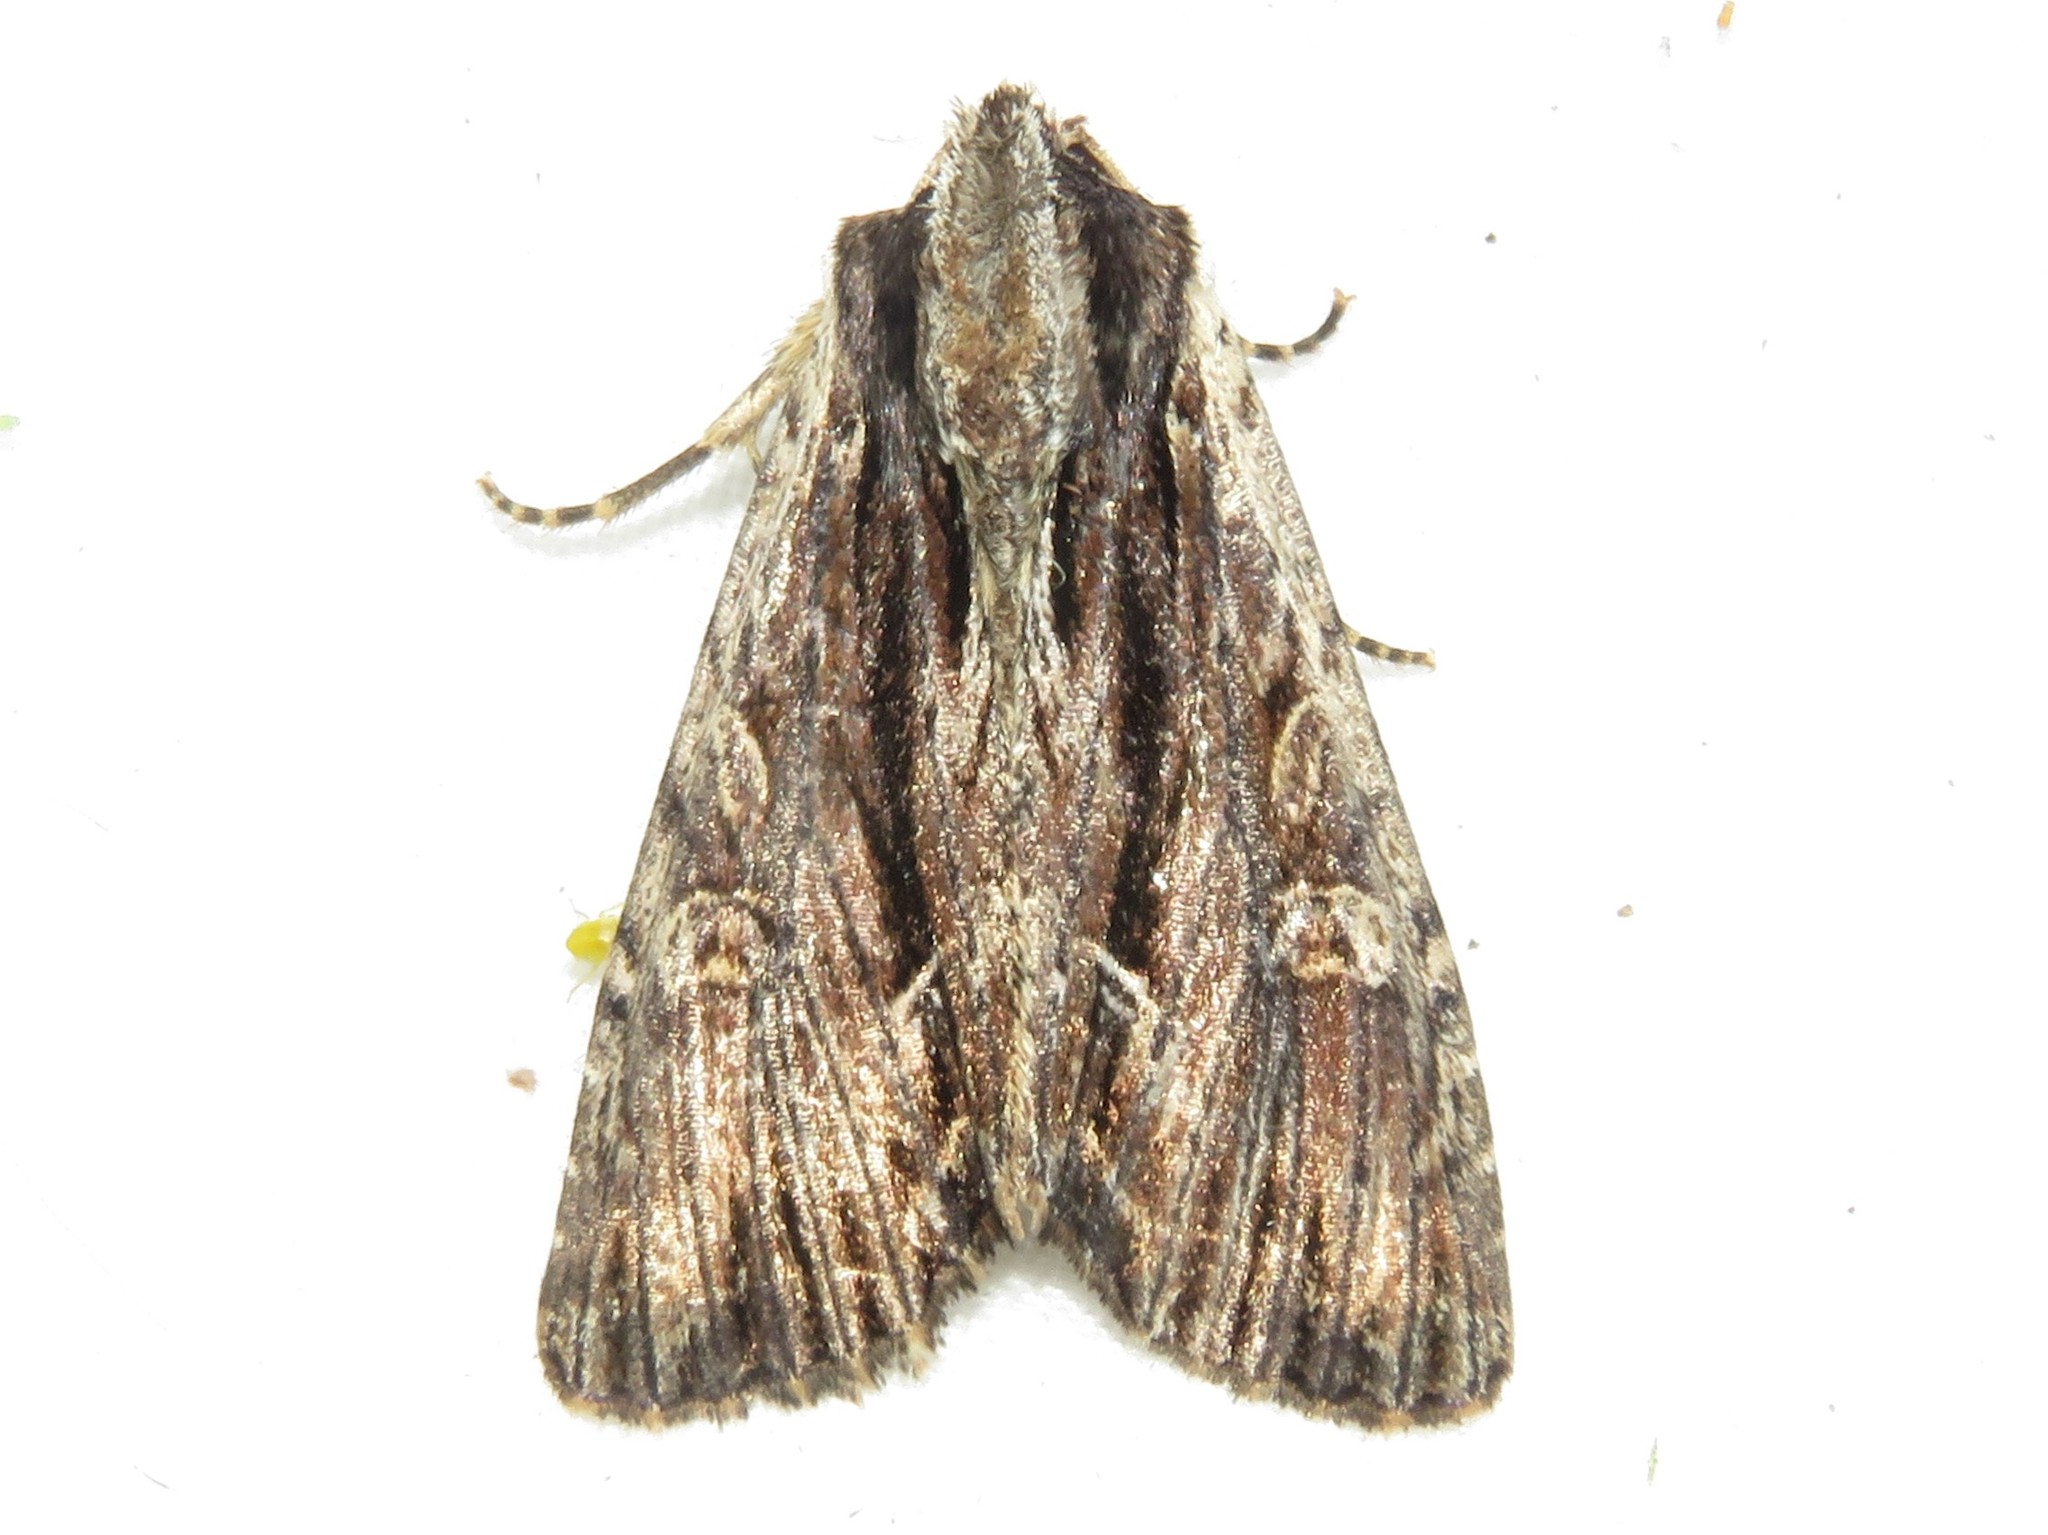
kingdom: Animalia
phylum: Arthropoda
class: Insecta
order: Lepidoptera
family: Noctuidae
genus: Apamea
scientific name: Apamea nigrior
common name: Black-dashed apamea moth
